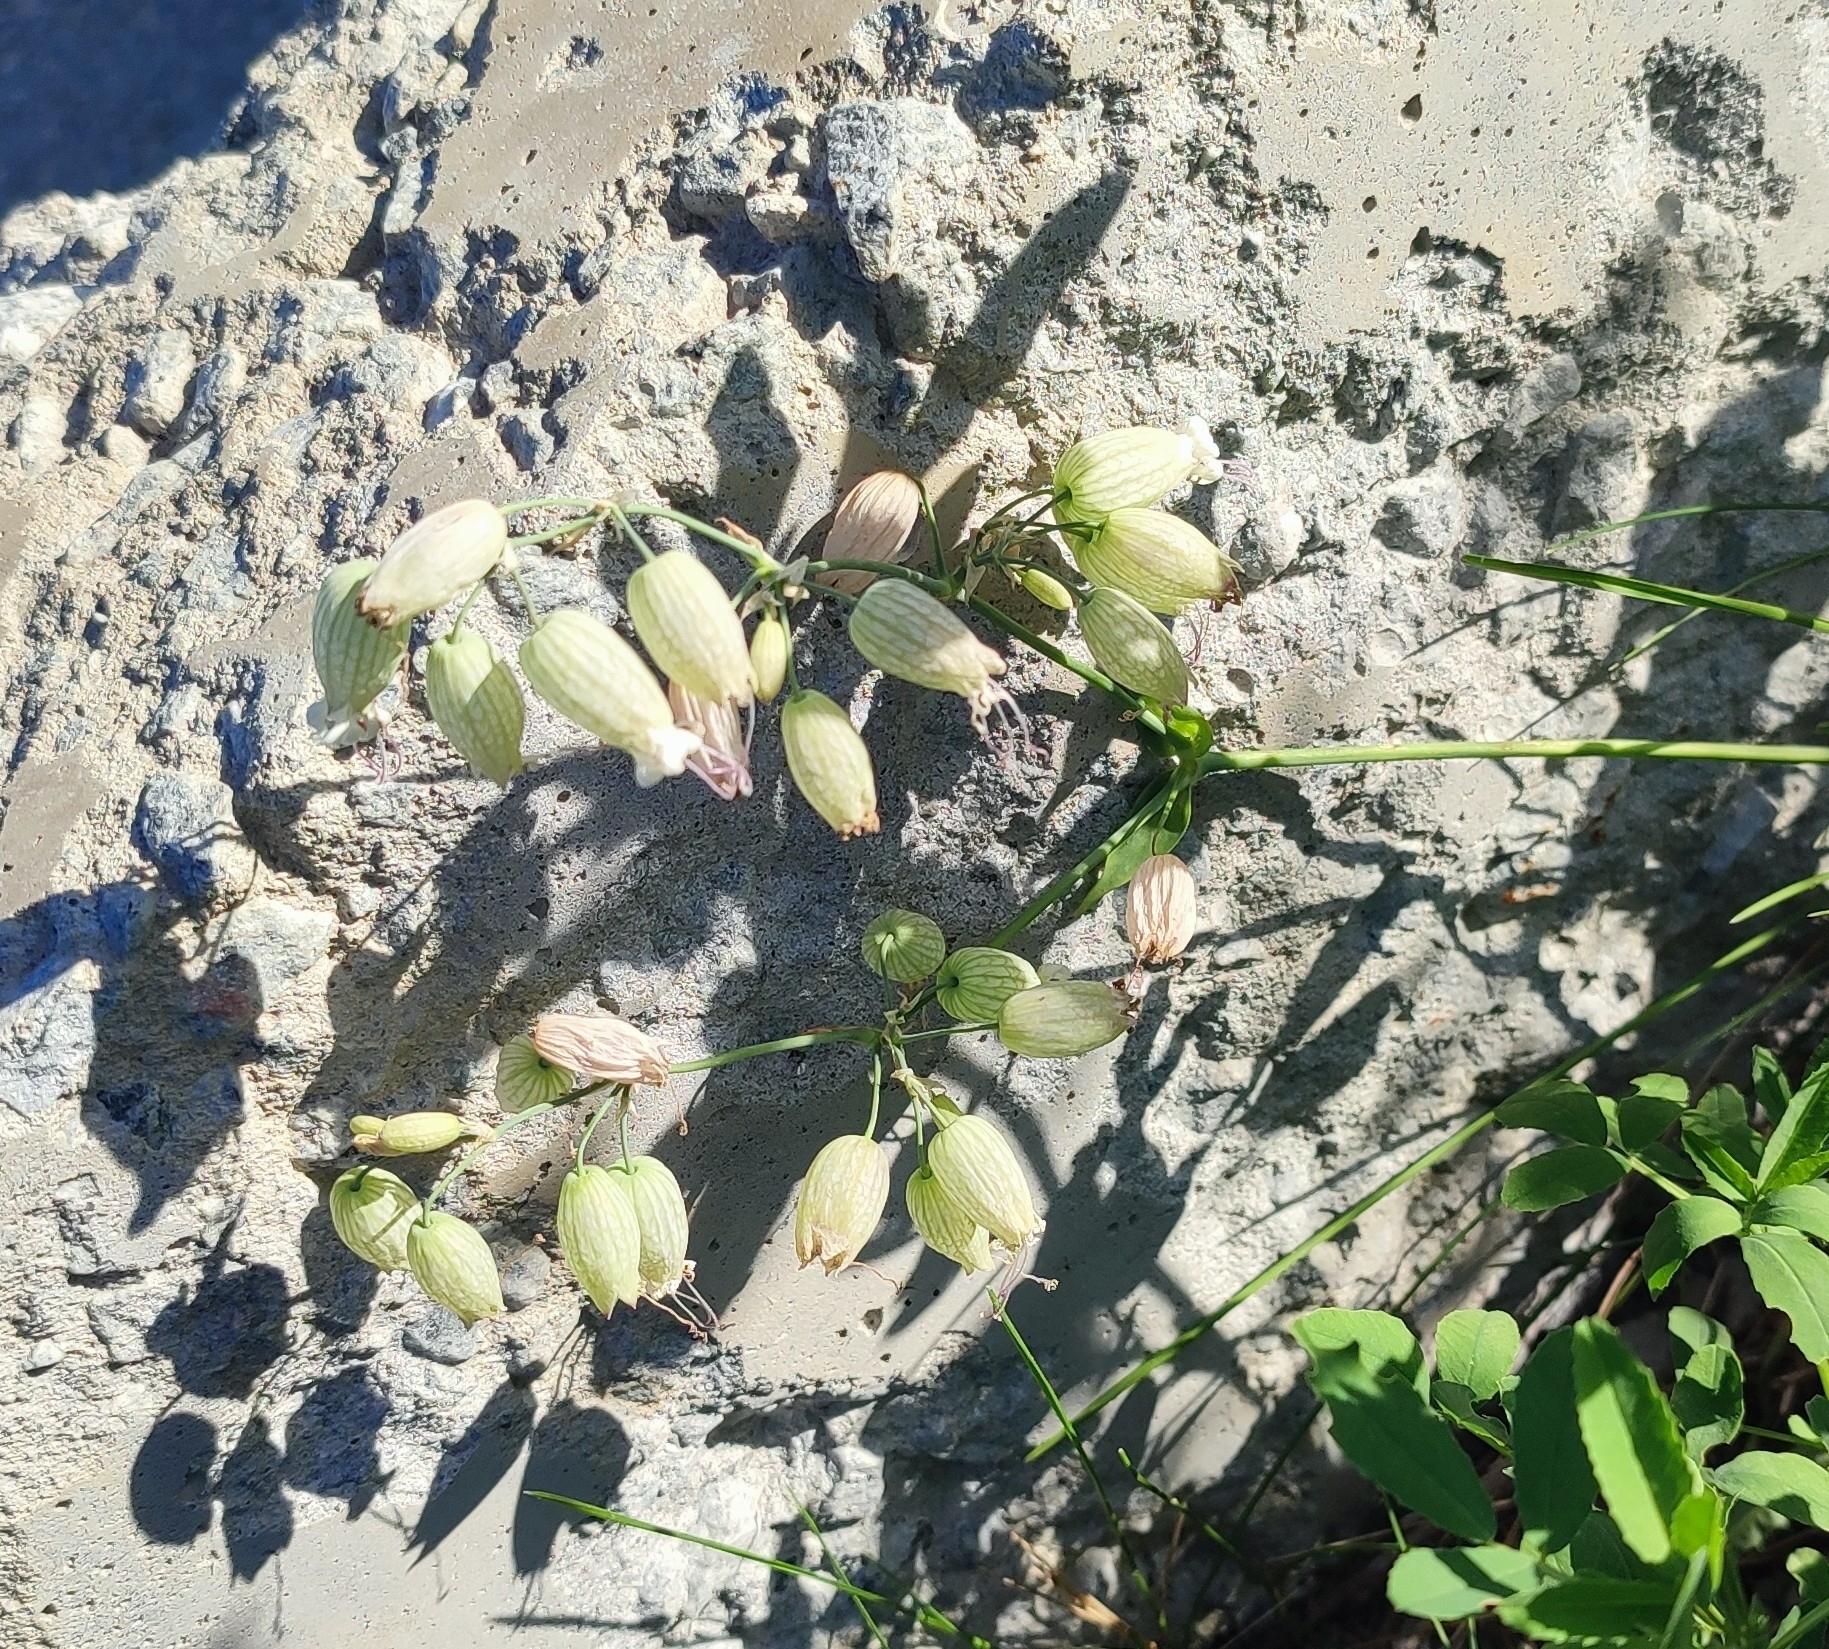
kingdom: Plantae
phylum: Tracheophyta
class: Magnoliopsida
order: Caryophyllales
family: Caryophyllaceae
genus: Silene
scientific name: Silene vulgaris
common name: Bladder campion
